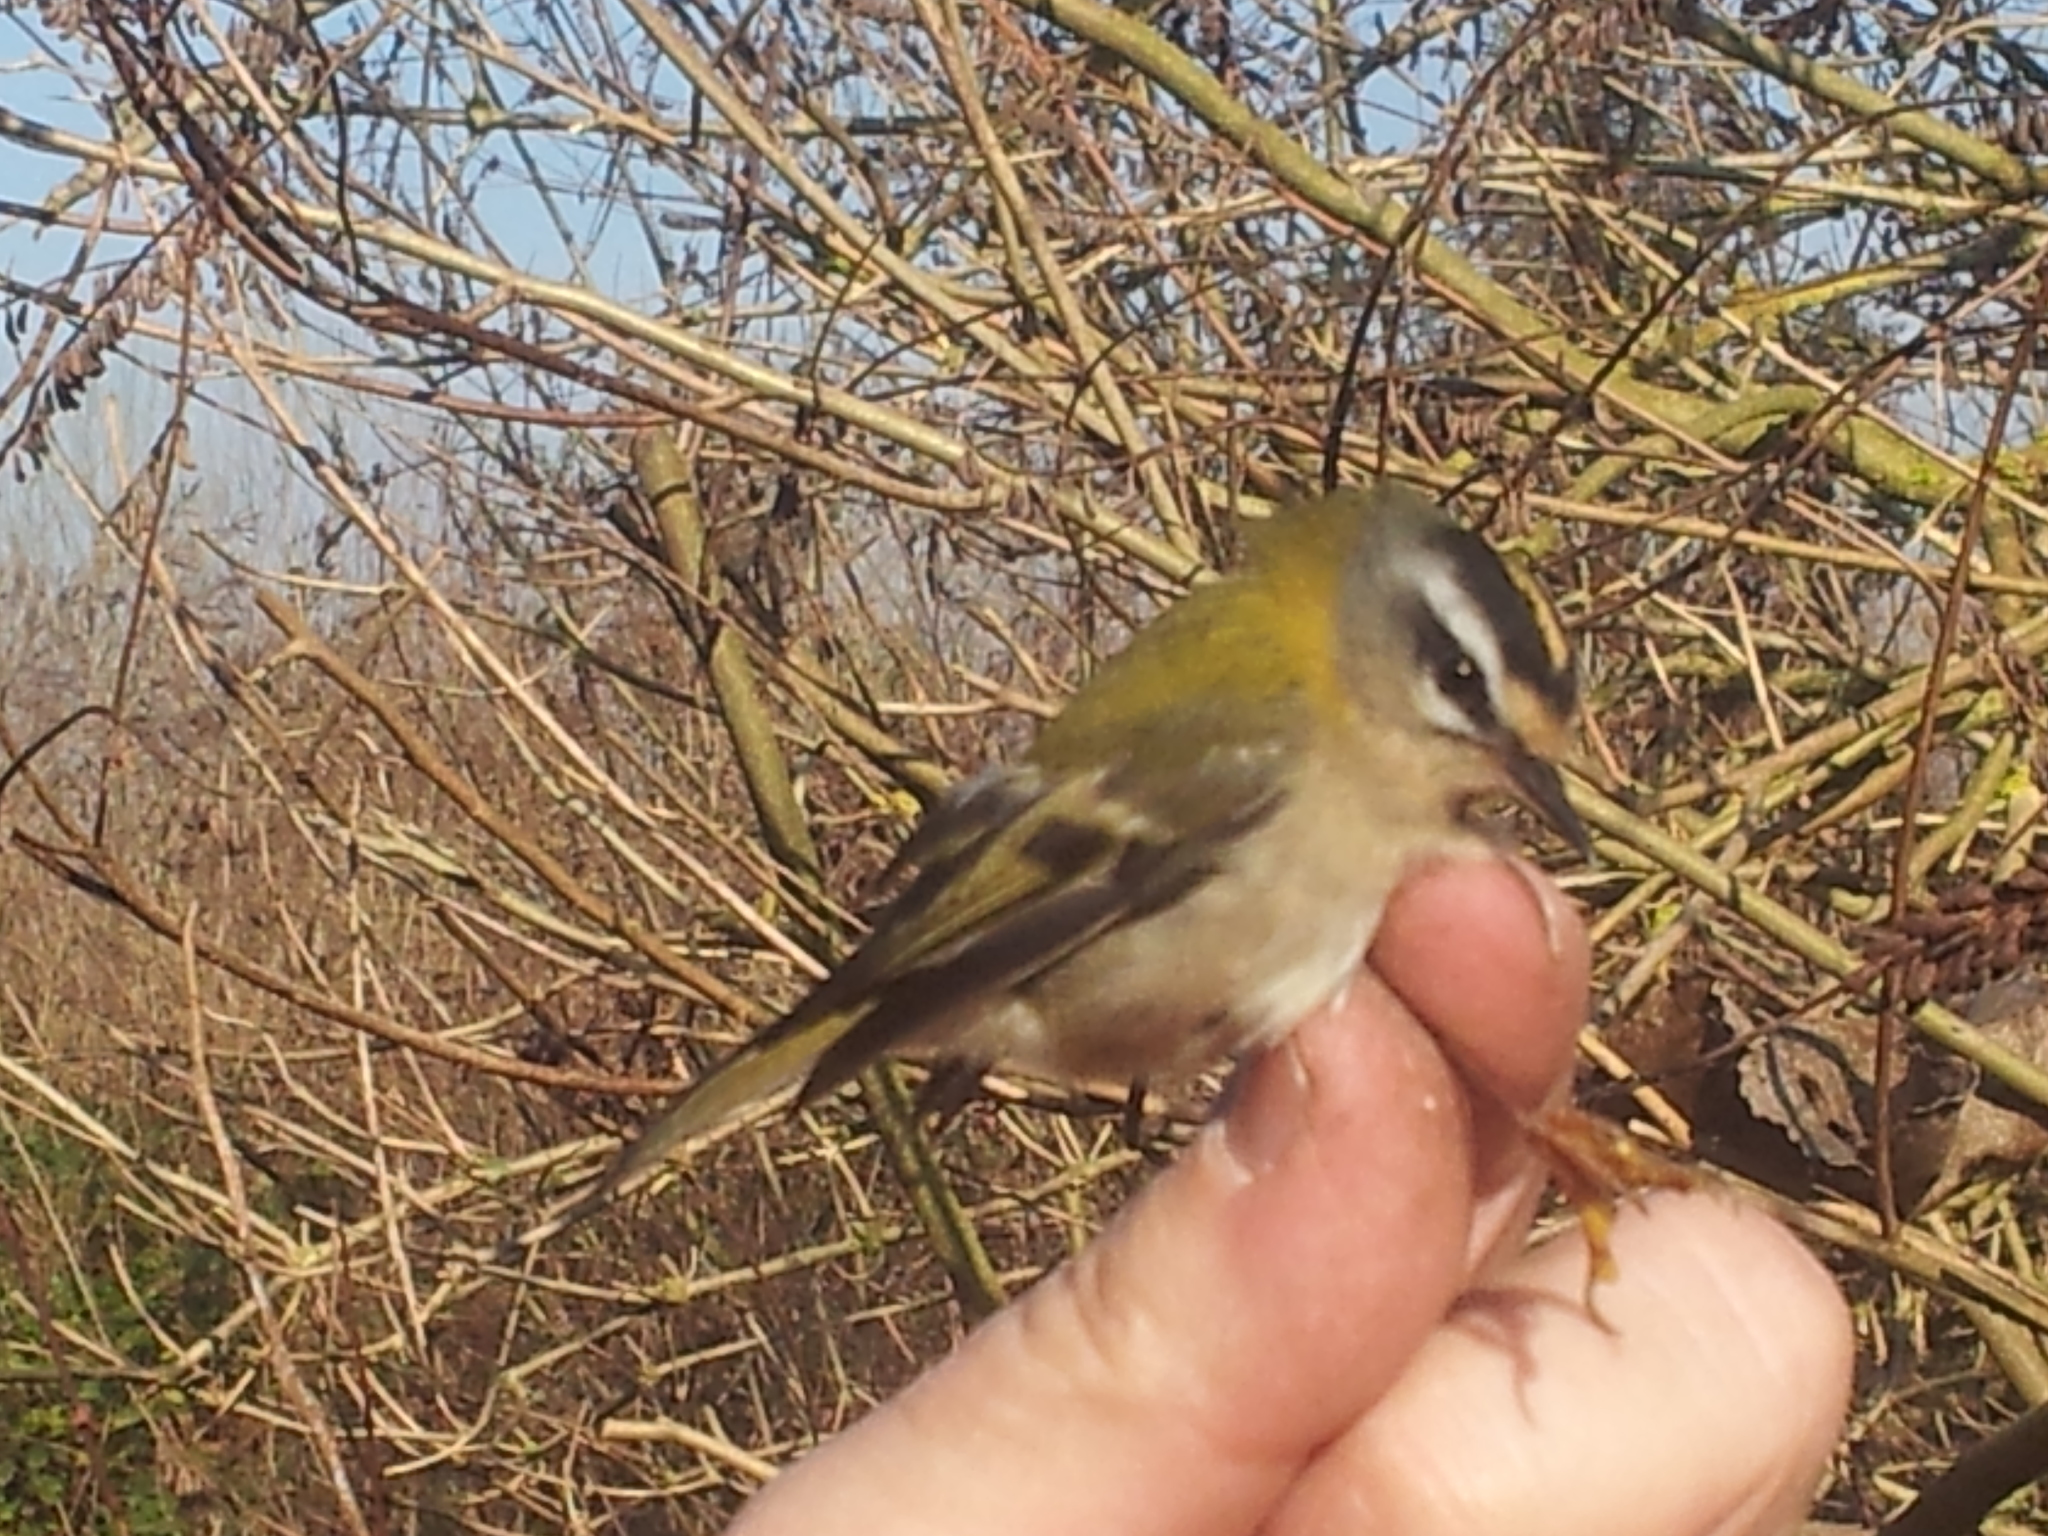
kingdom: Animalia
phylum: Chordata
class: Aves
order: Passeriformes
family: Regulidae
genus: Regulus
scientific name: Regulus ignicapilla
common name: Firecrest
